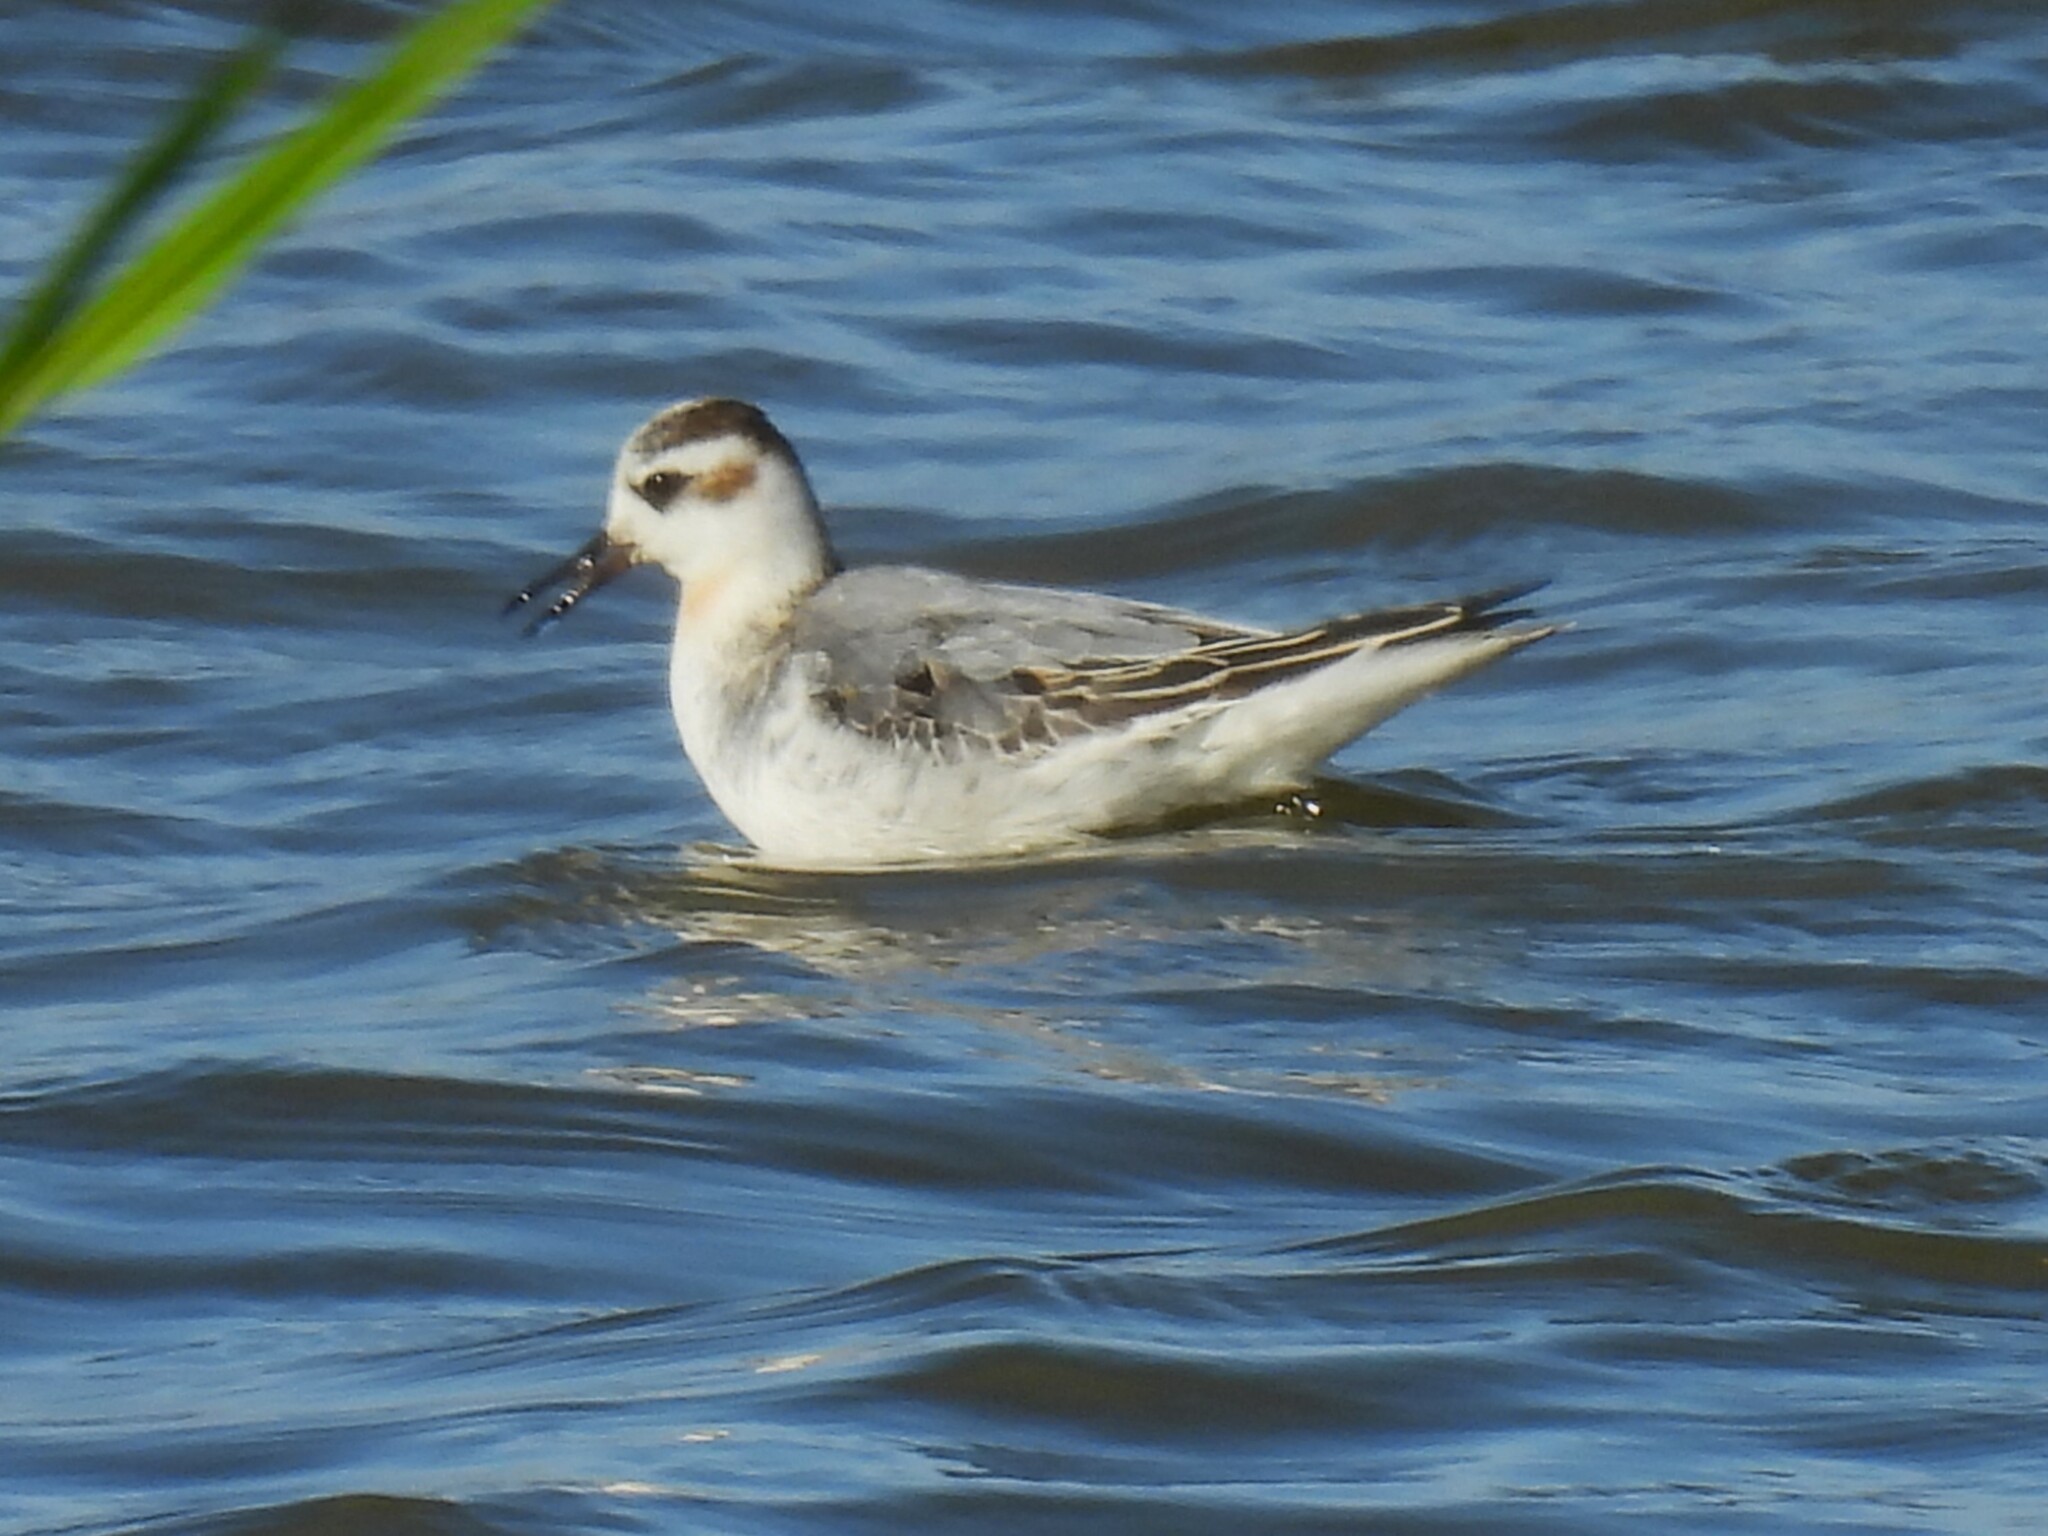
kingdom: Animalia
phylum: Chordata
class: Aves
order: Charadriiformes
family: Scolopacidae
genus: Phalaropus
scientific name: Phalaropus fulicarius
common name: Red phalarope
